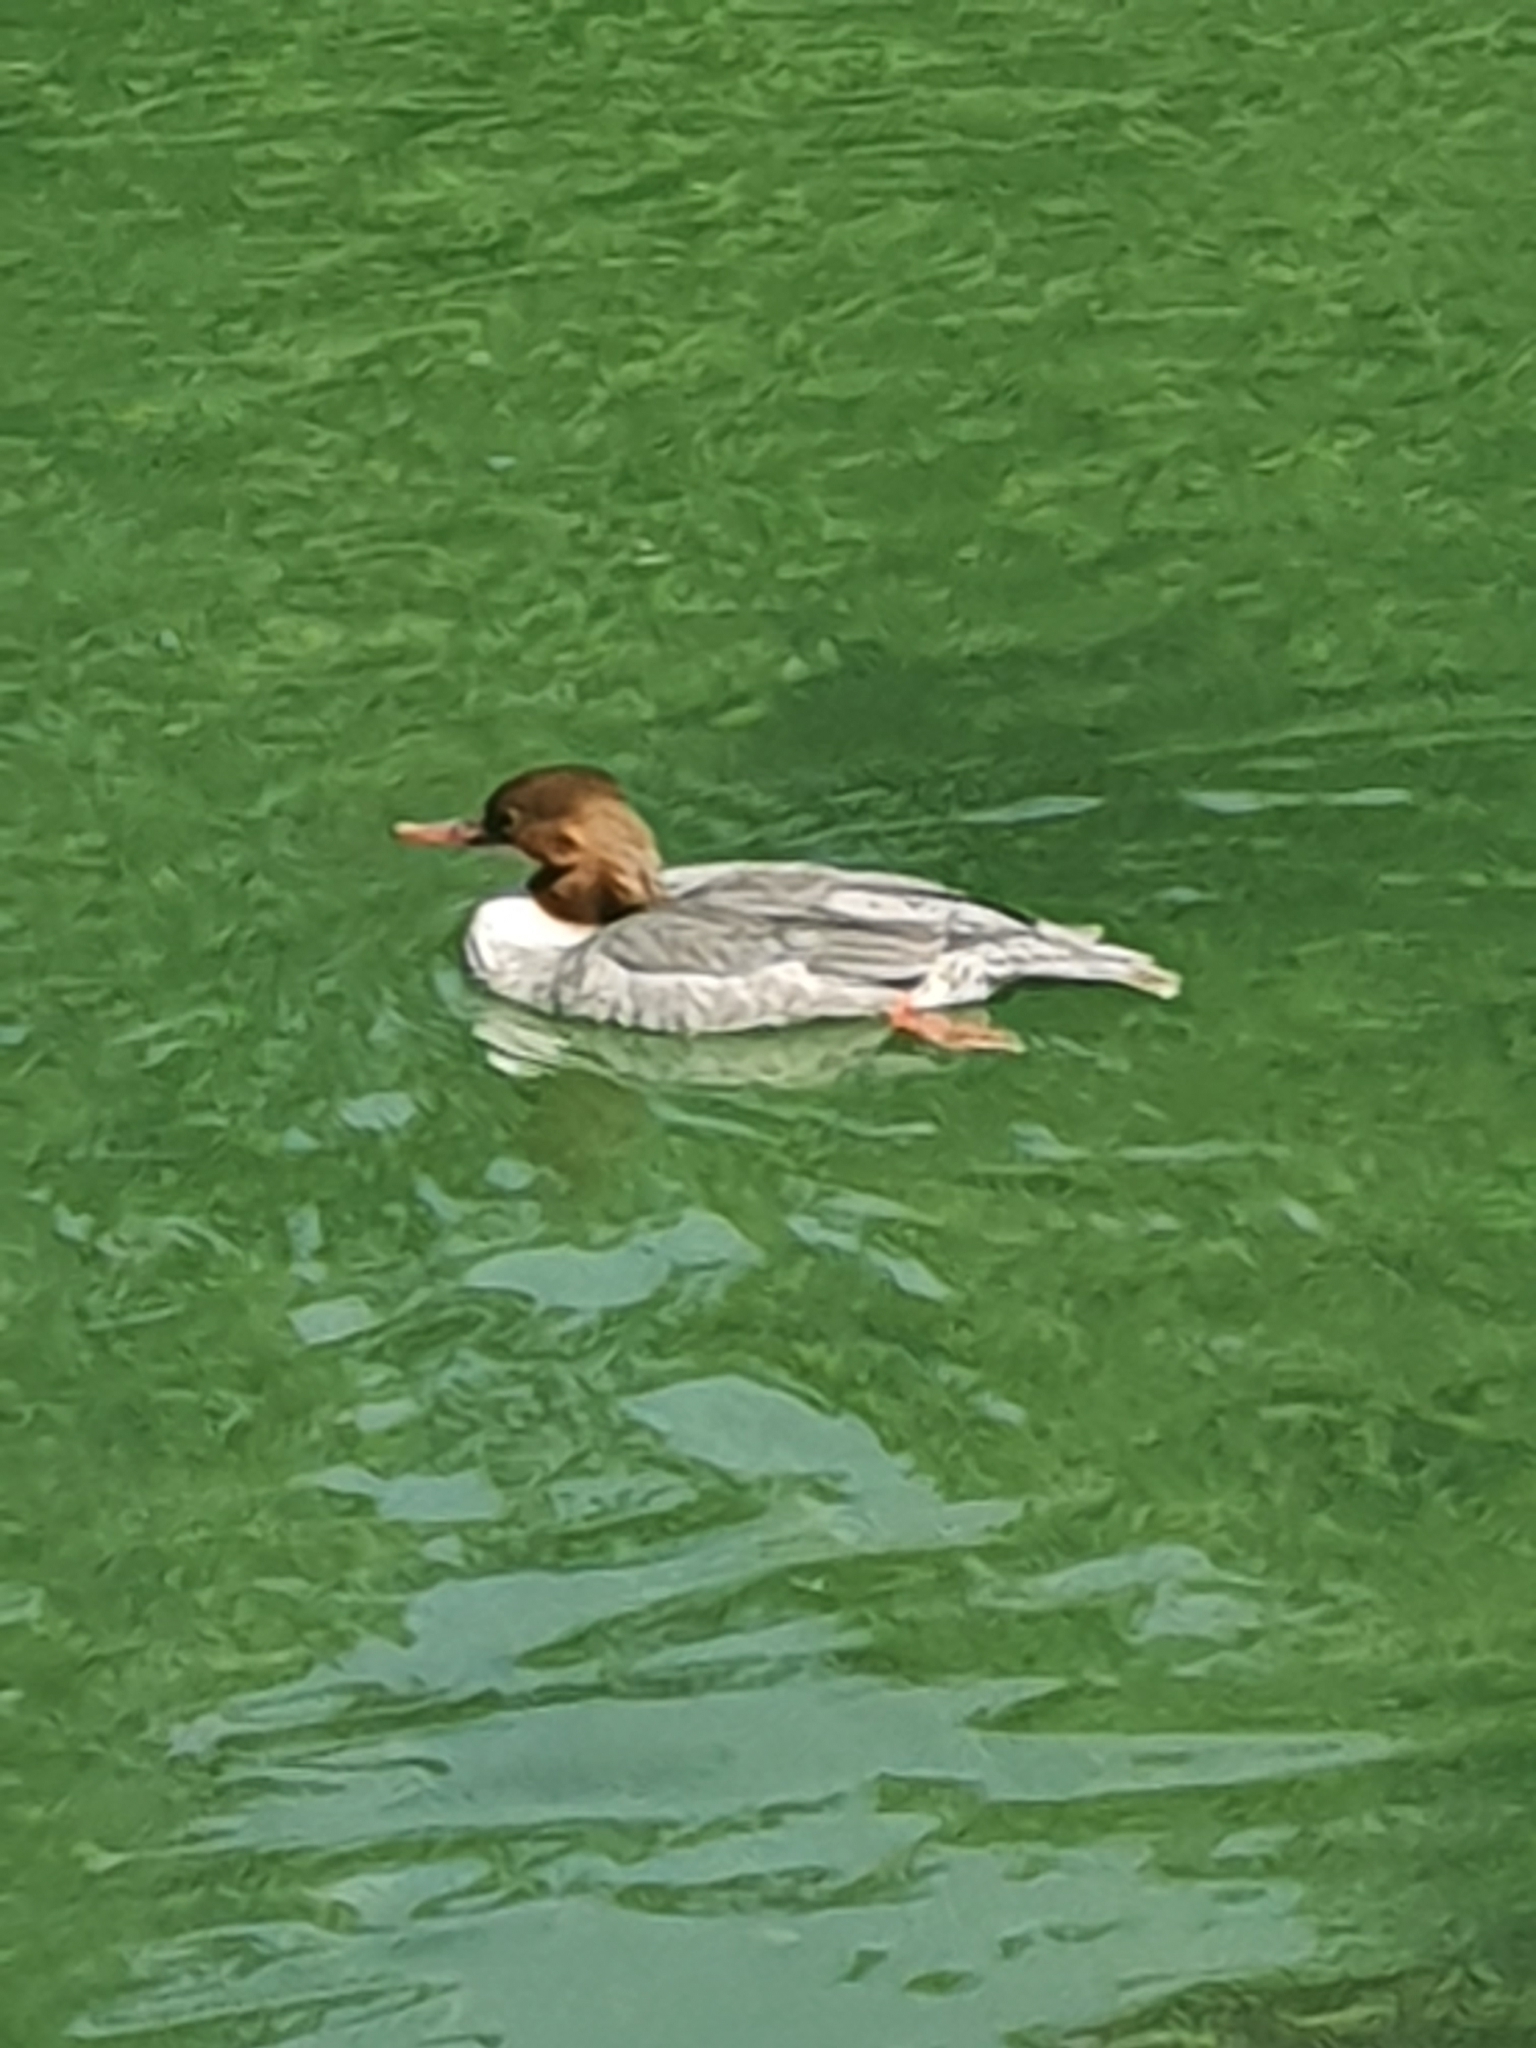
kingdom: Animalia
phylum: Chordata
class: Aves
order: Anseriformes
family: Anatidae
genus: Mergus
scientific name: Mergus merganser
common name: Common merganser
